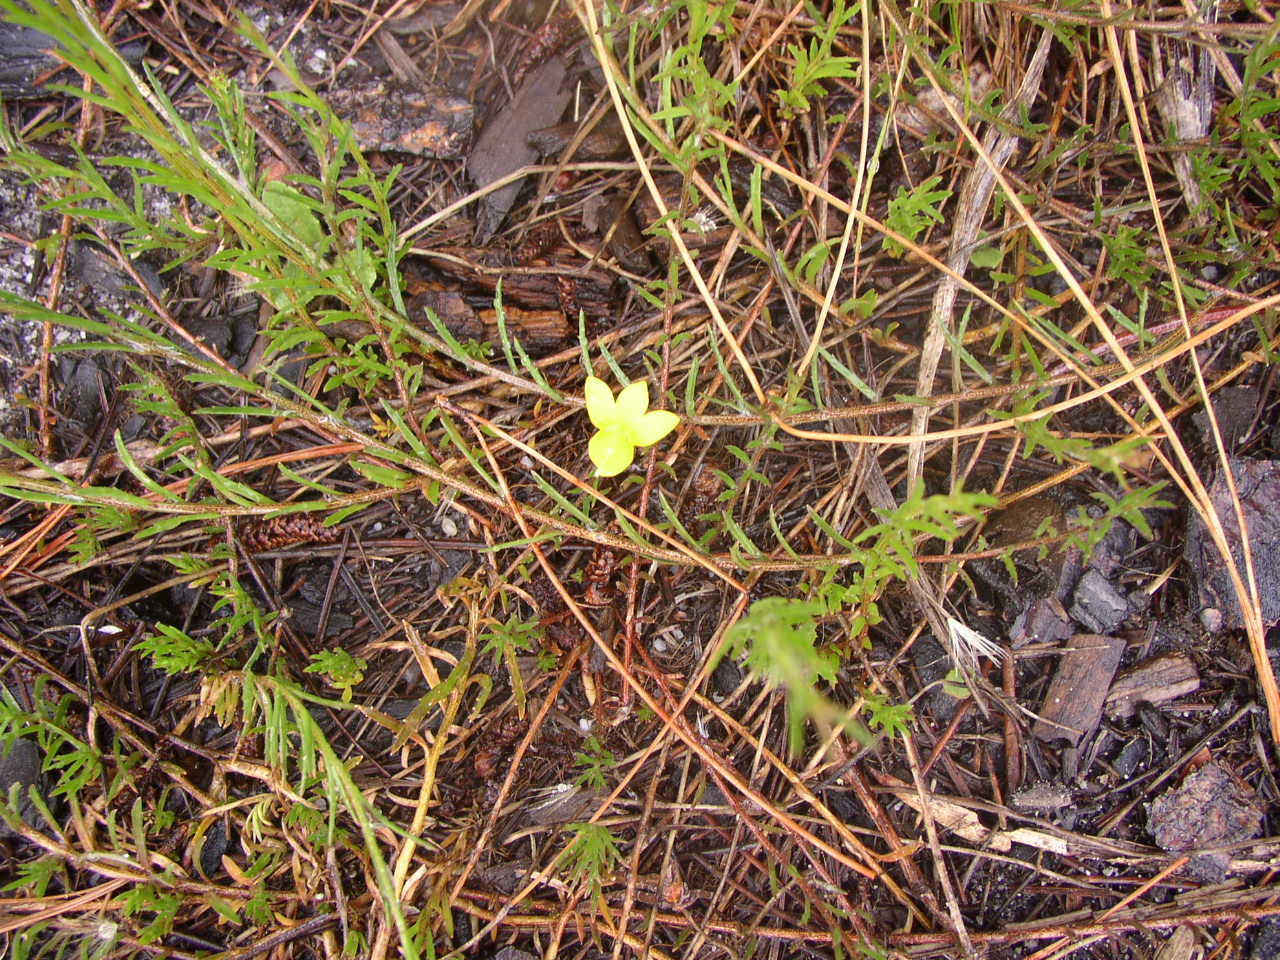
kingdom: Plantae
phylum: Tracheophyta
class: Magnoliopsida
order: Asterales
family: Campanulaceae
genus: Monopsis
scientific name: Monopsis lutea
